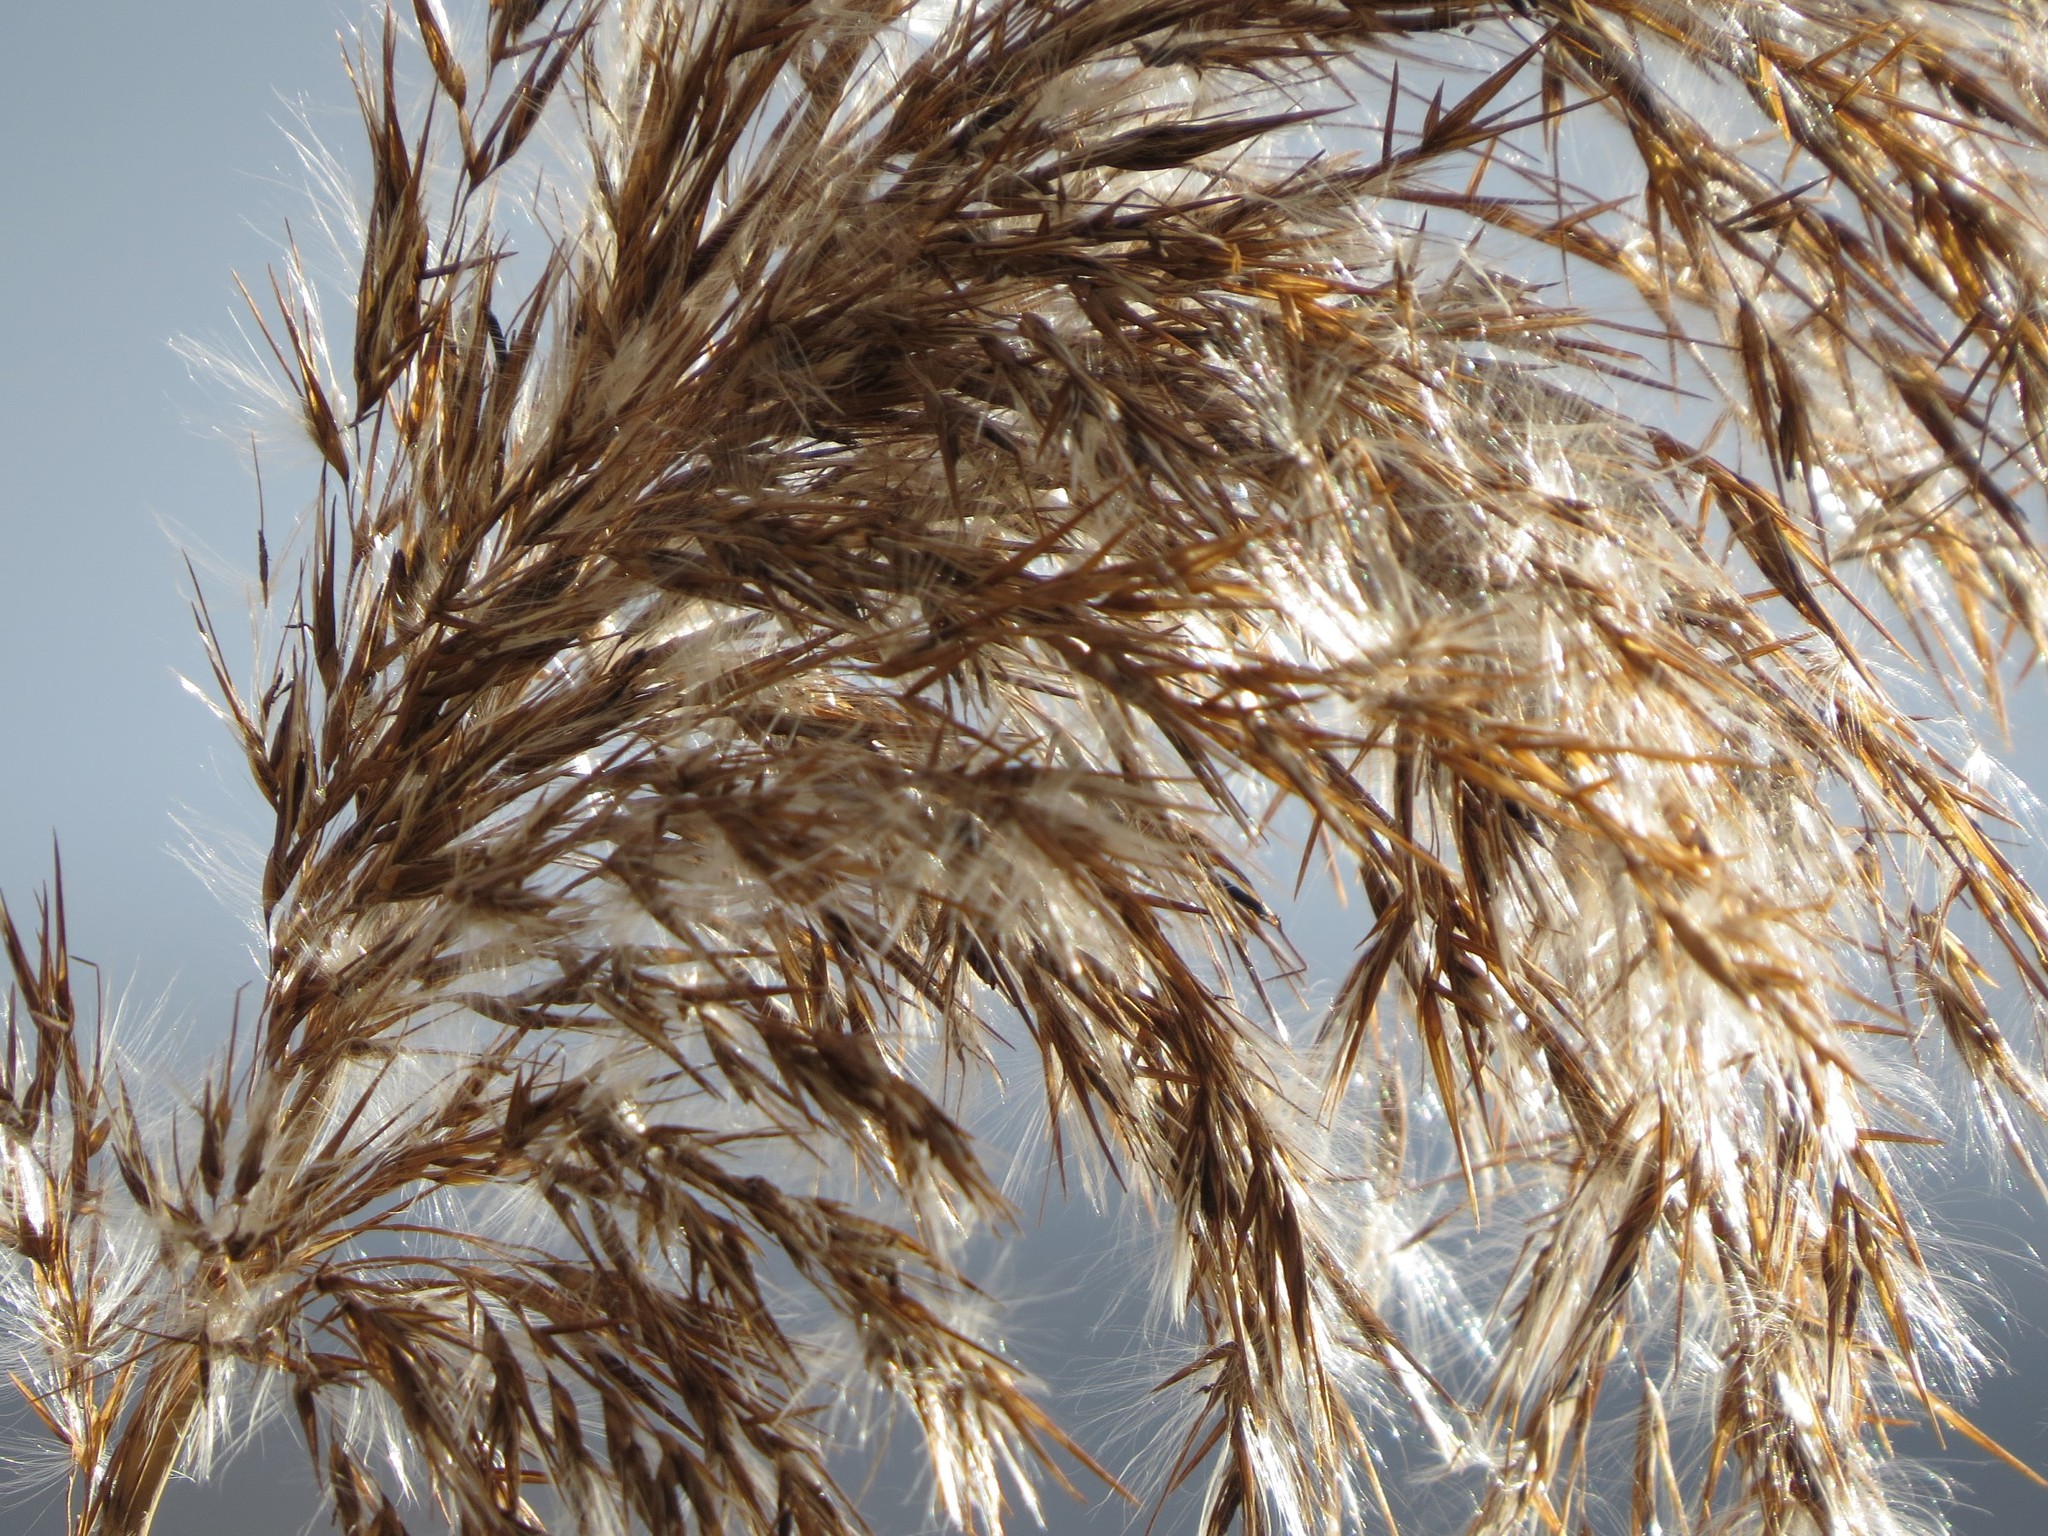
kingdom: Plantae
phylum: Tracheophyta
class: Liliopsida
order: Poales
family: Poaceae
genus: Phragmites
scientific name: Phragmites australis
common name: Common reed
